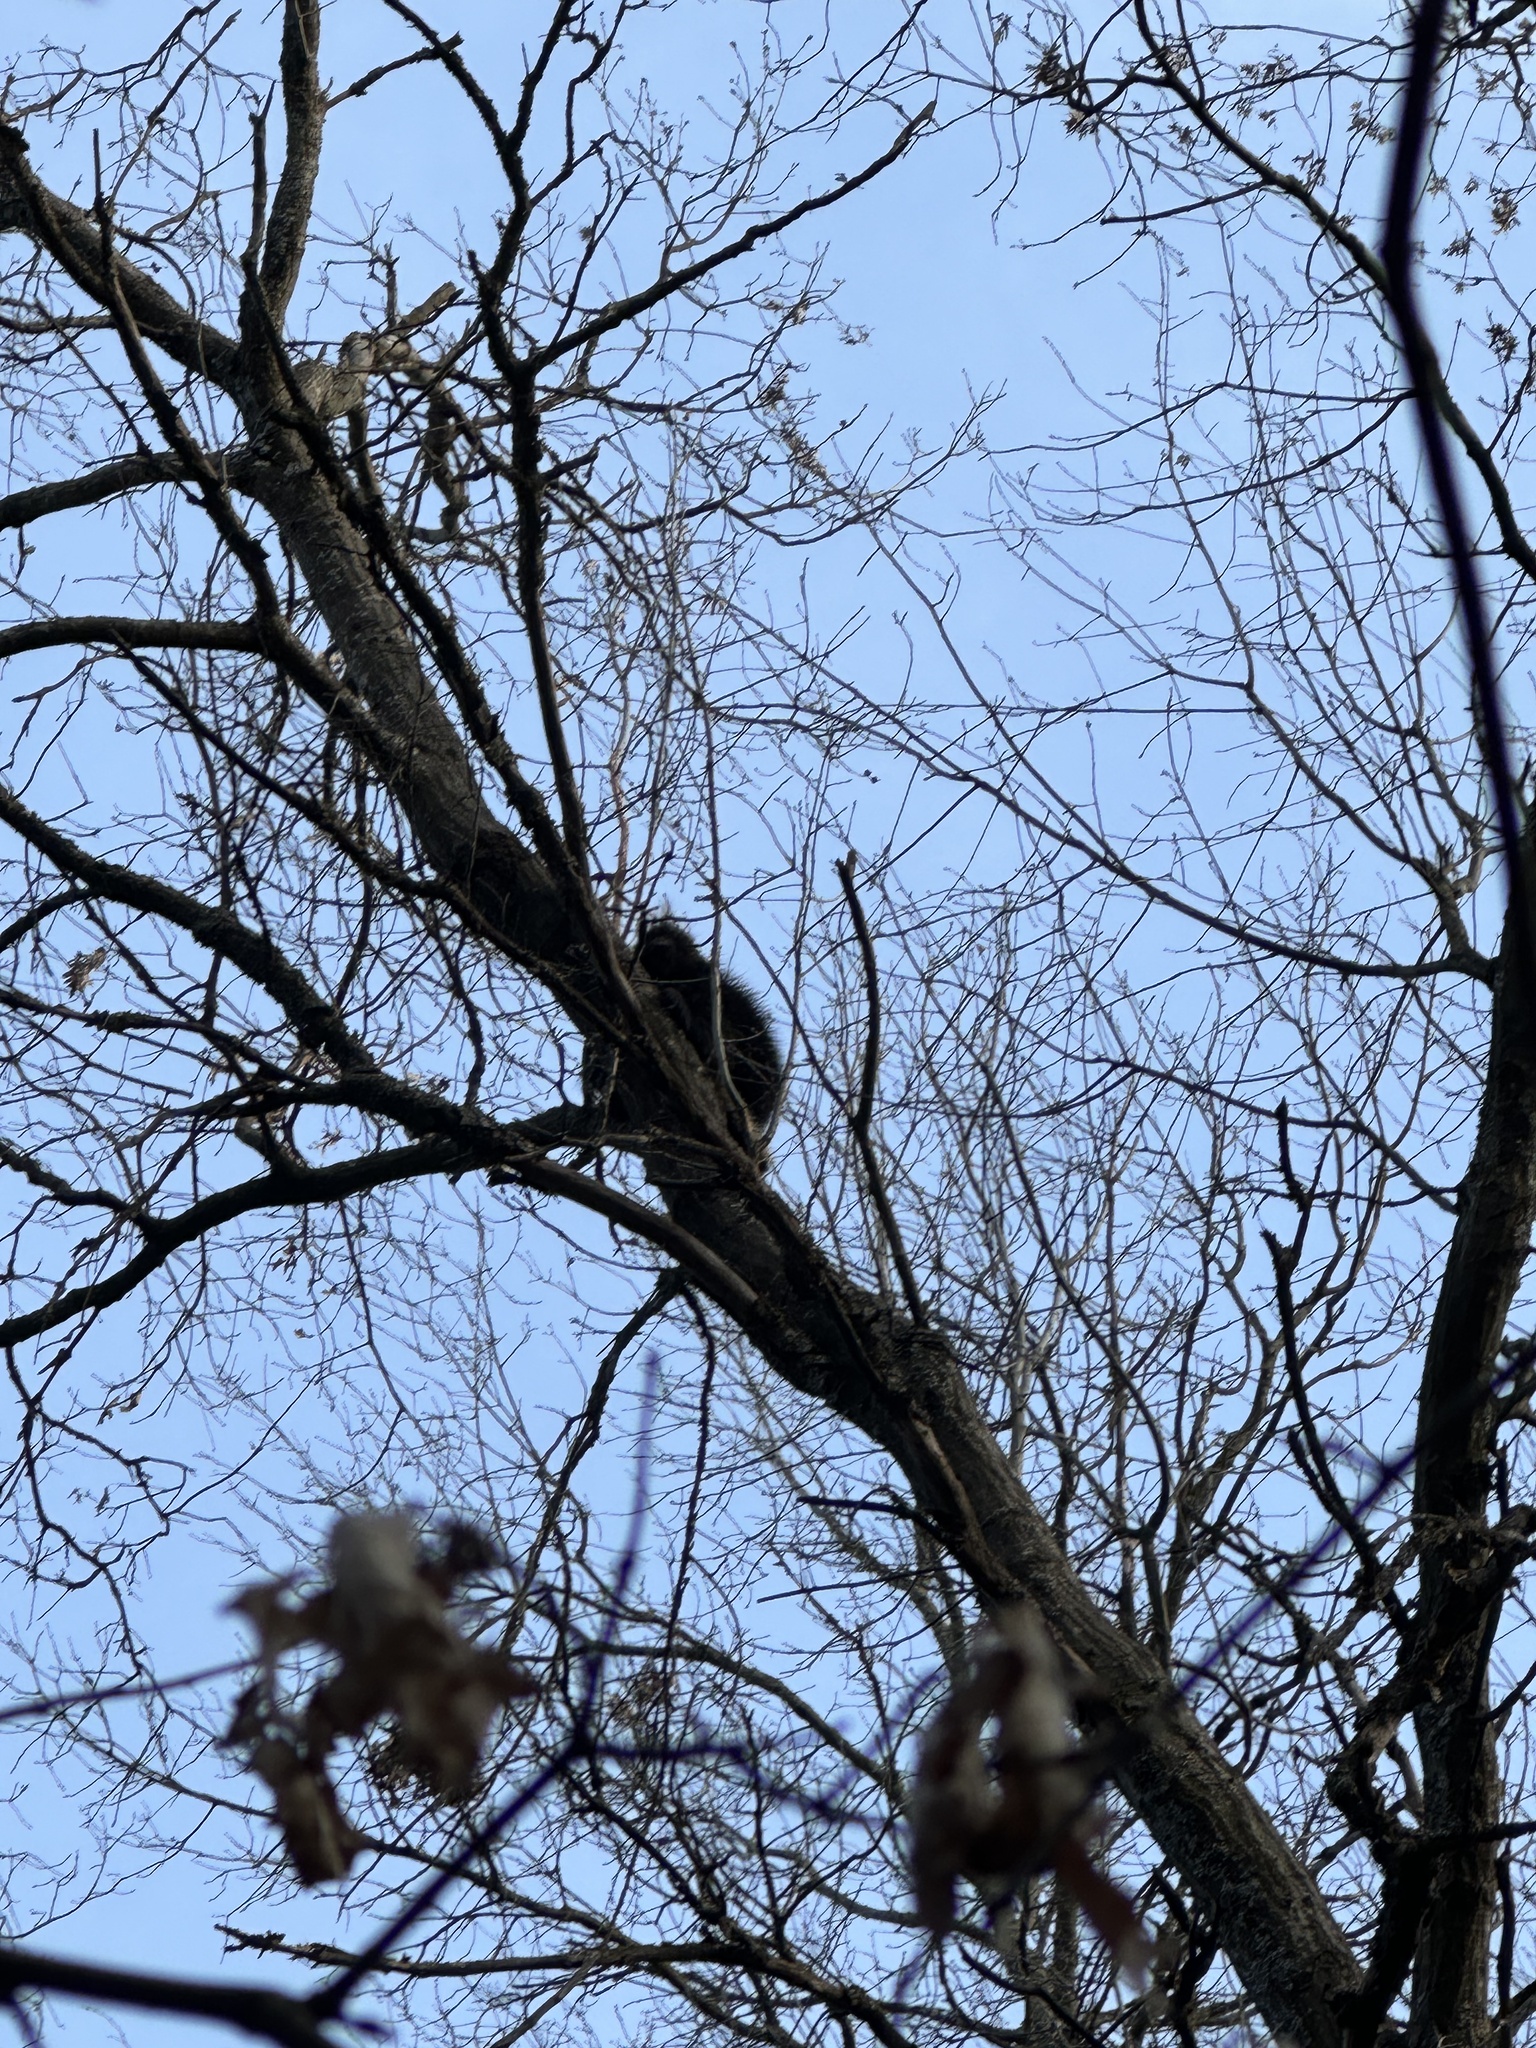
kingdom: Animalia
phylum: Chordata
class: Mammalia
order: Rodentia
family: Erethizontidae
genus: Erethizon
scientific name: Erethizon dorsatus
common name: North american porcupine
